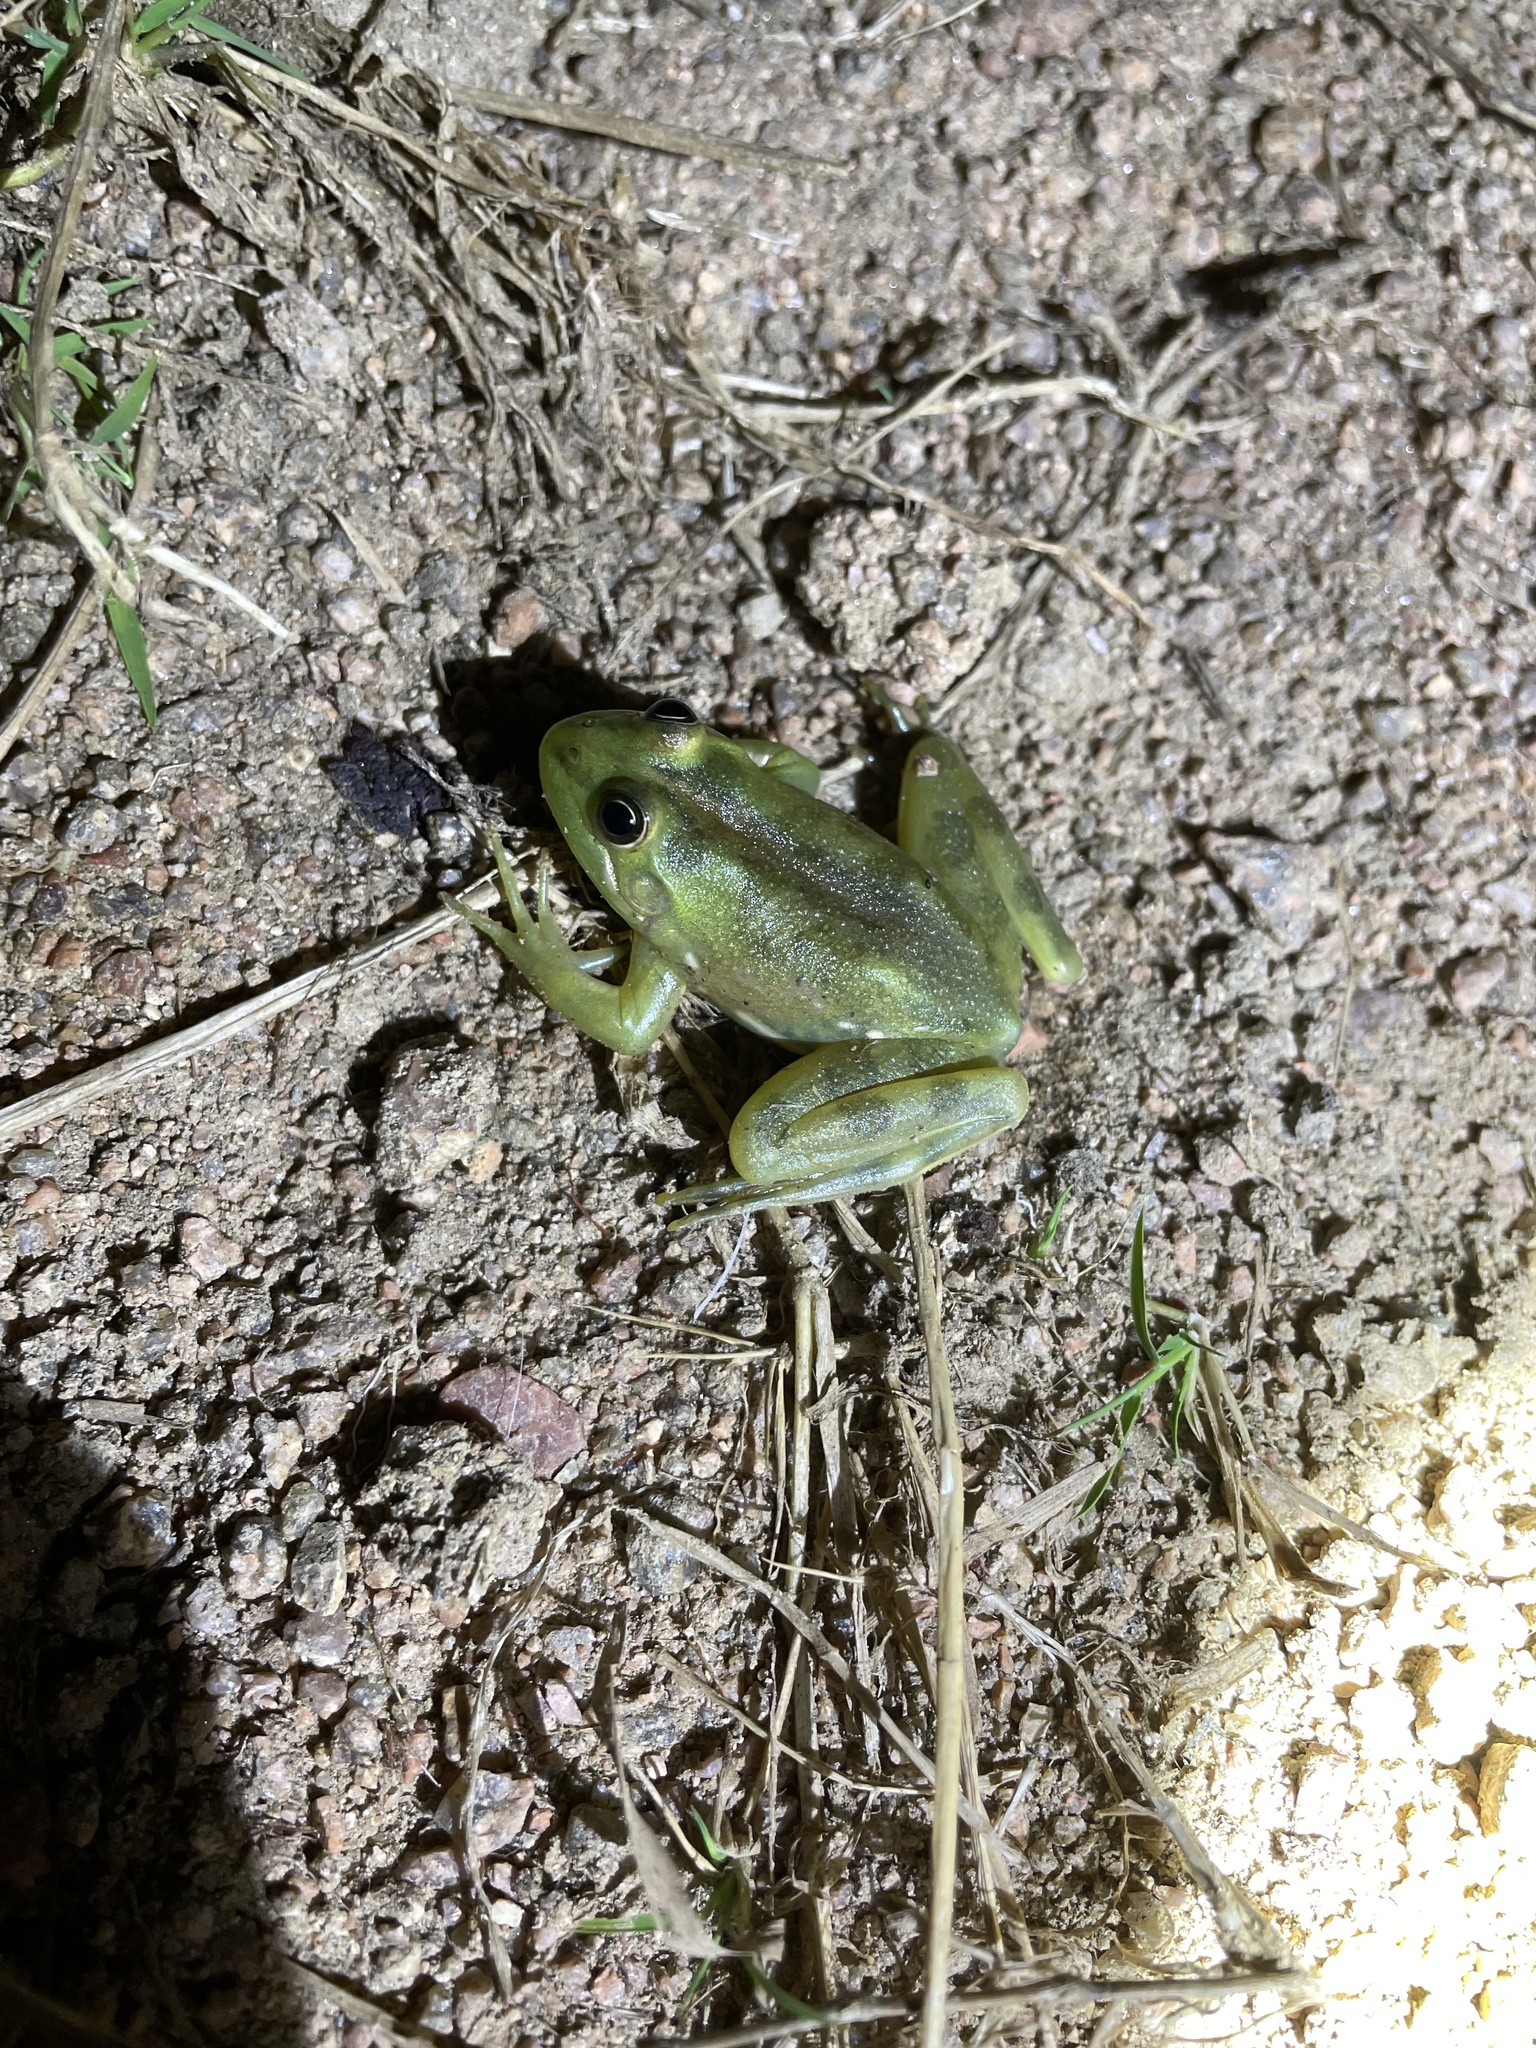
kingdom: Animalia
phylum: Chordata
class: Amphibia
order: Anura
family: Hylidae
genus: Pseudis
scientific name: Pseudis minuta
